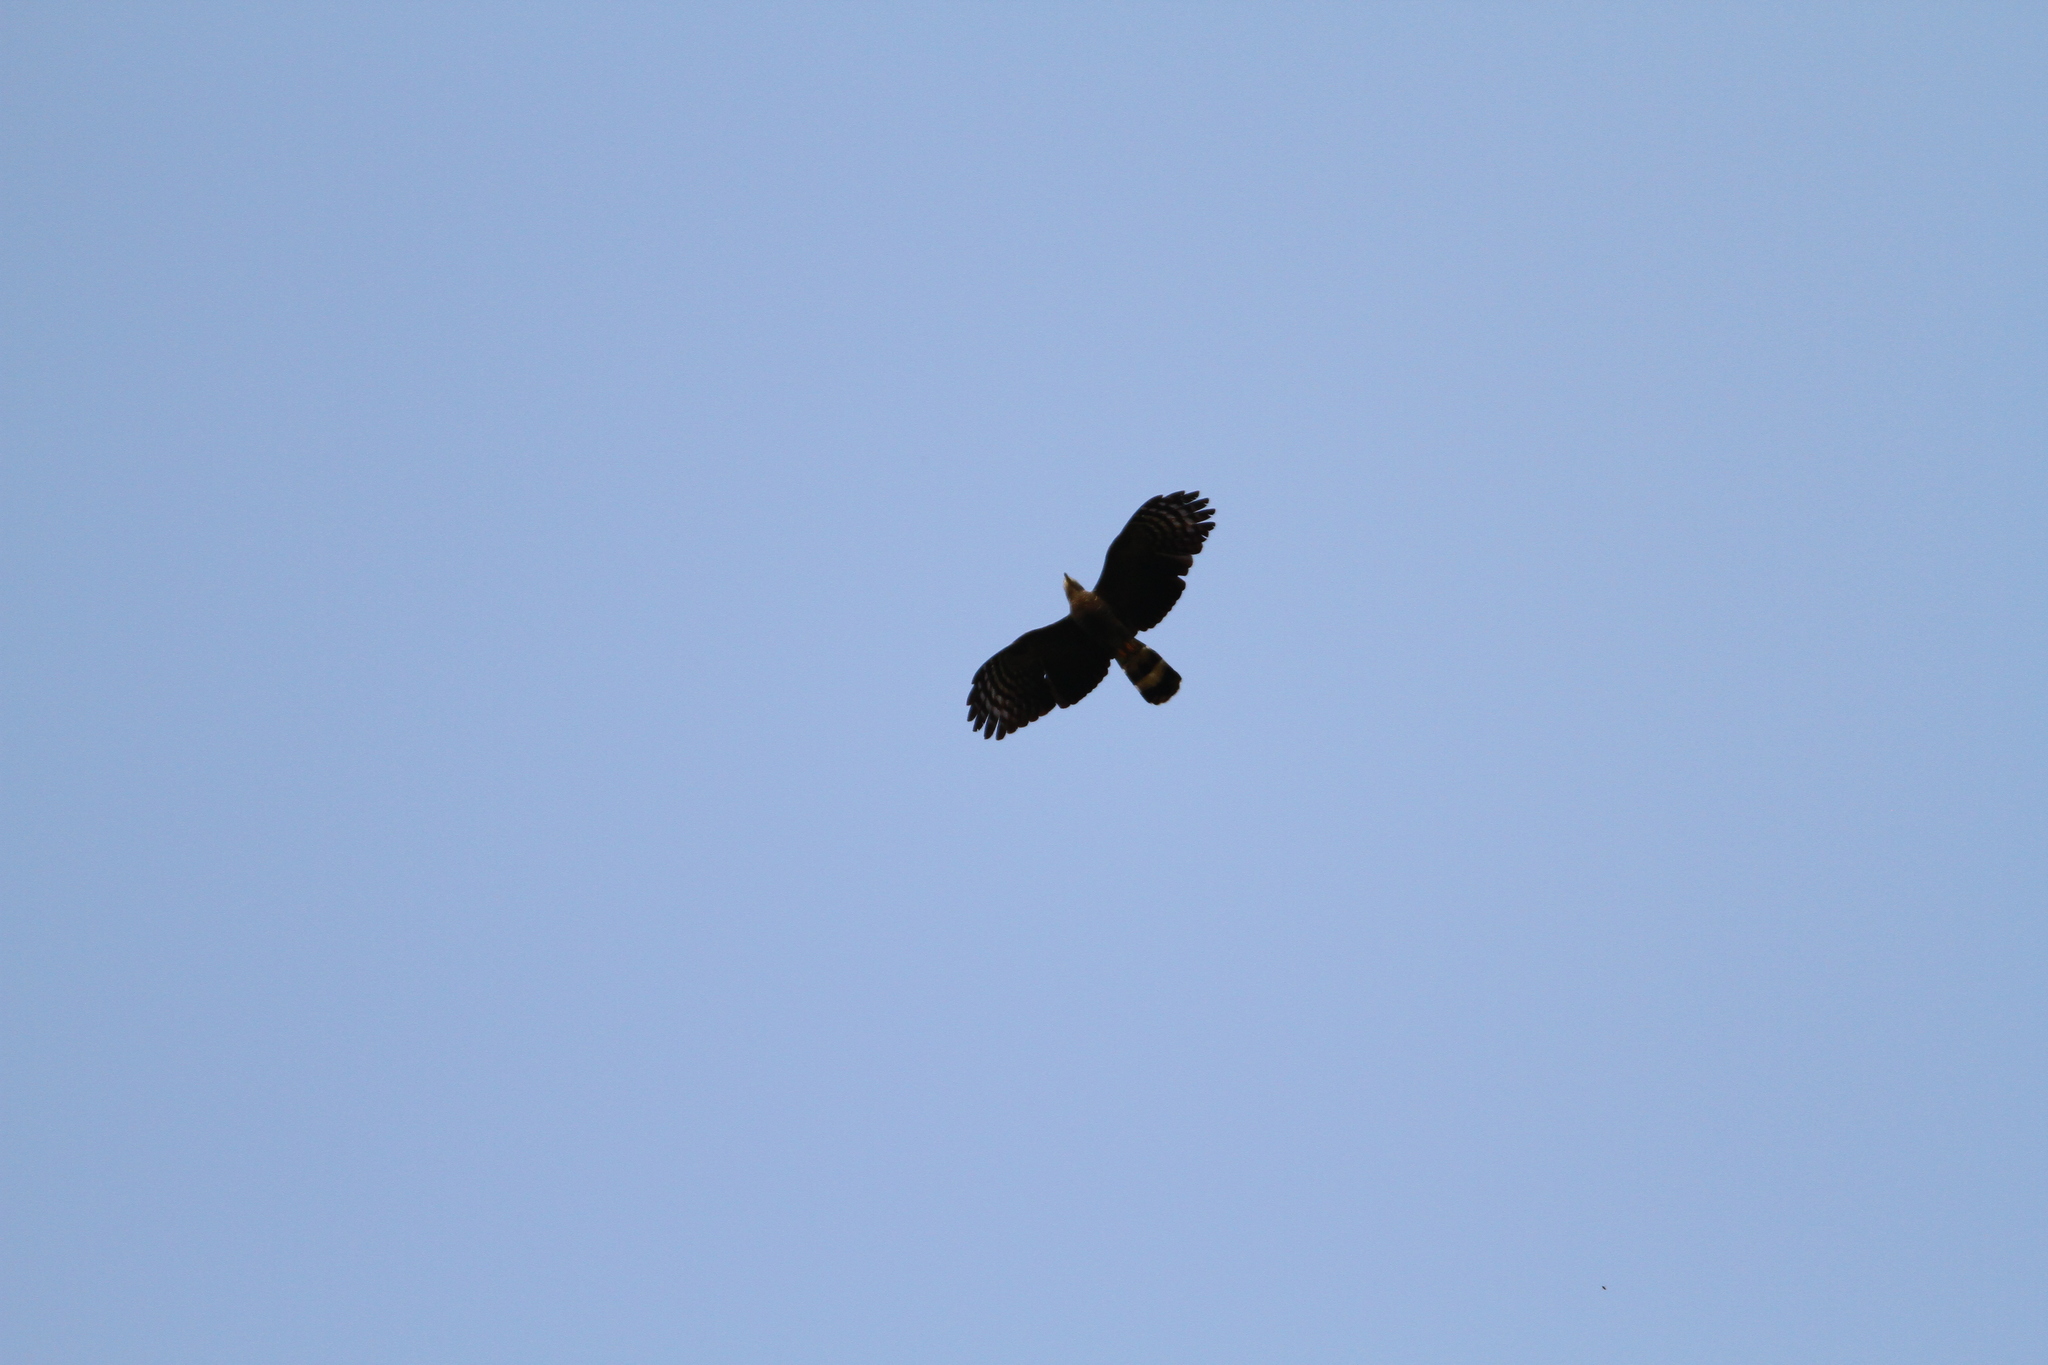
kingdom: Animalia
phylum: Chordata
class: Aves
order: Accipitriformes
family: Accipitridae
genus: Chondrohierax
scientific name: Chondrohierax uncinatus
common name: Hook-billed kite
